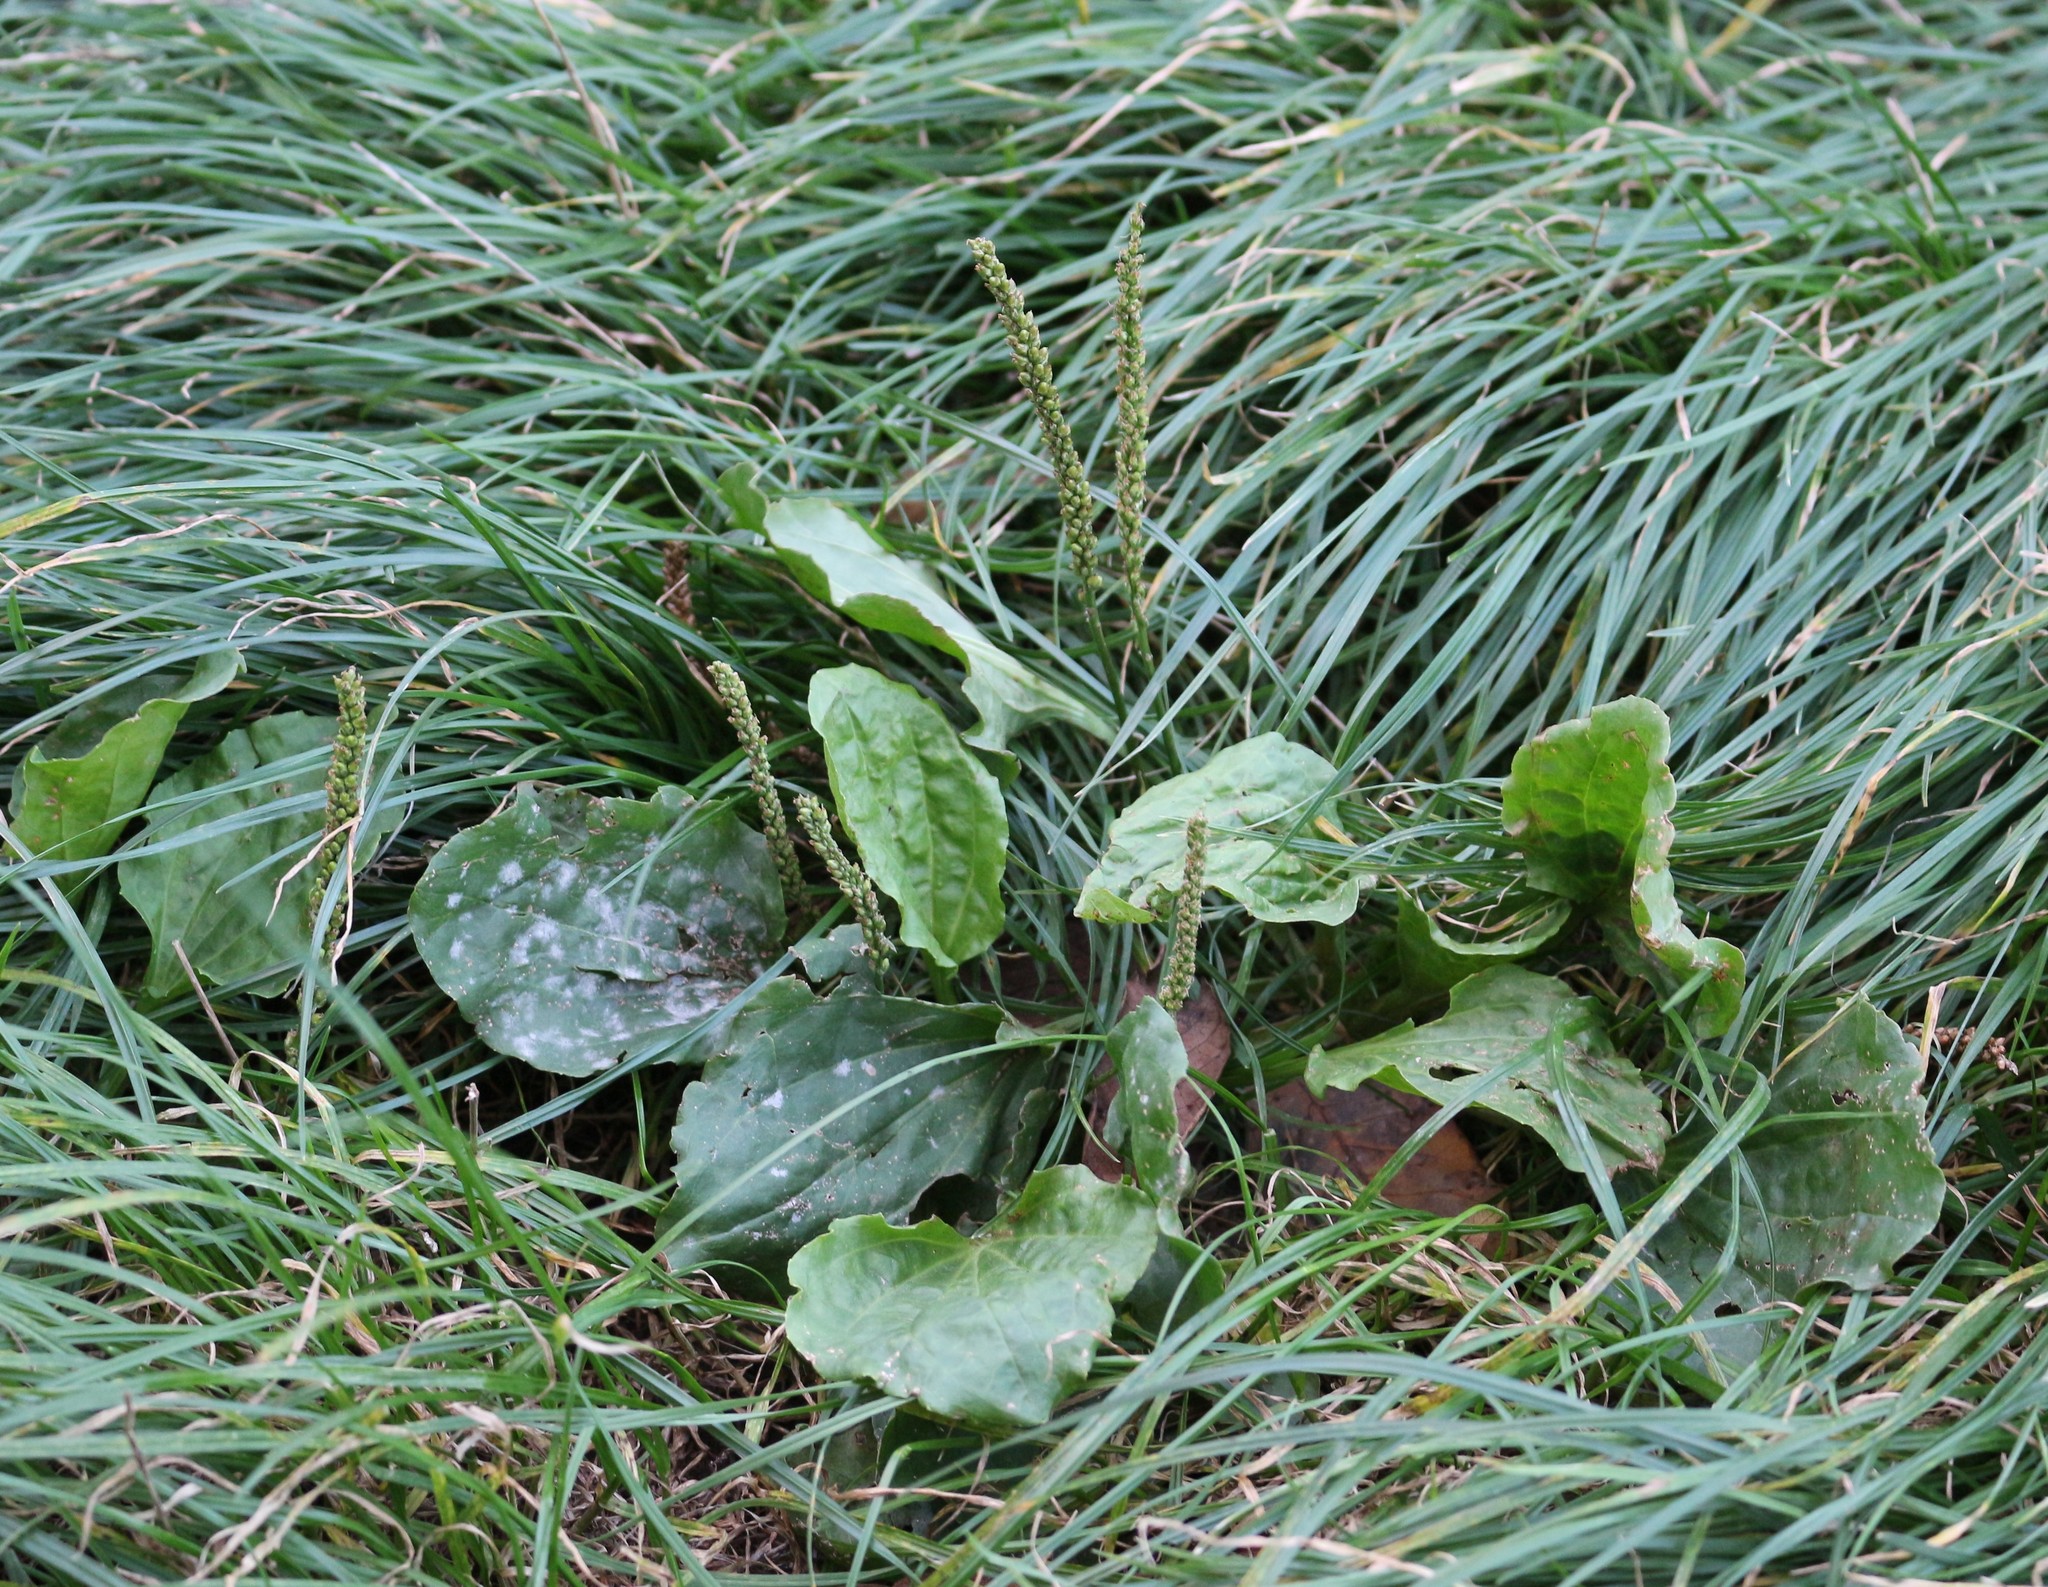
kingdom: Plantae
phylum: Tracheophyta
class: Magnoliopsida
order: Lamiales
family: Plantaginaceae
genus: Plantago
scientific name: Plantago major
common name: Common plantain
